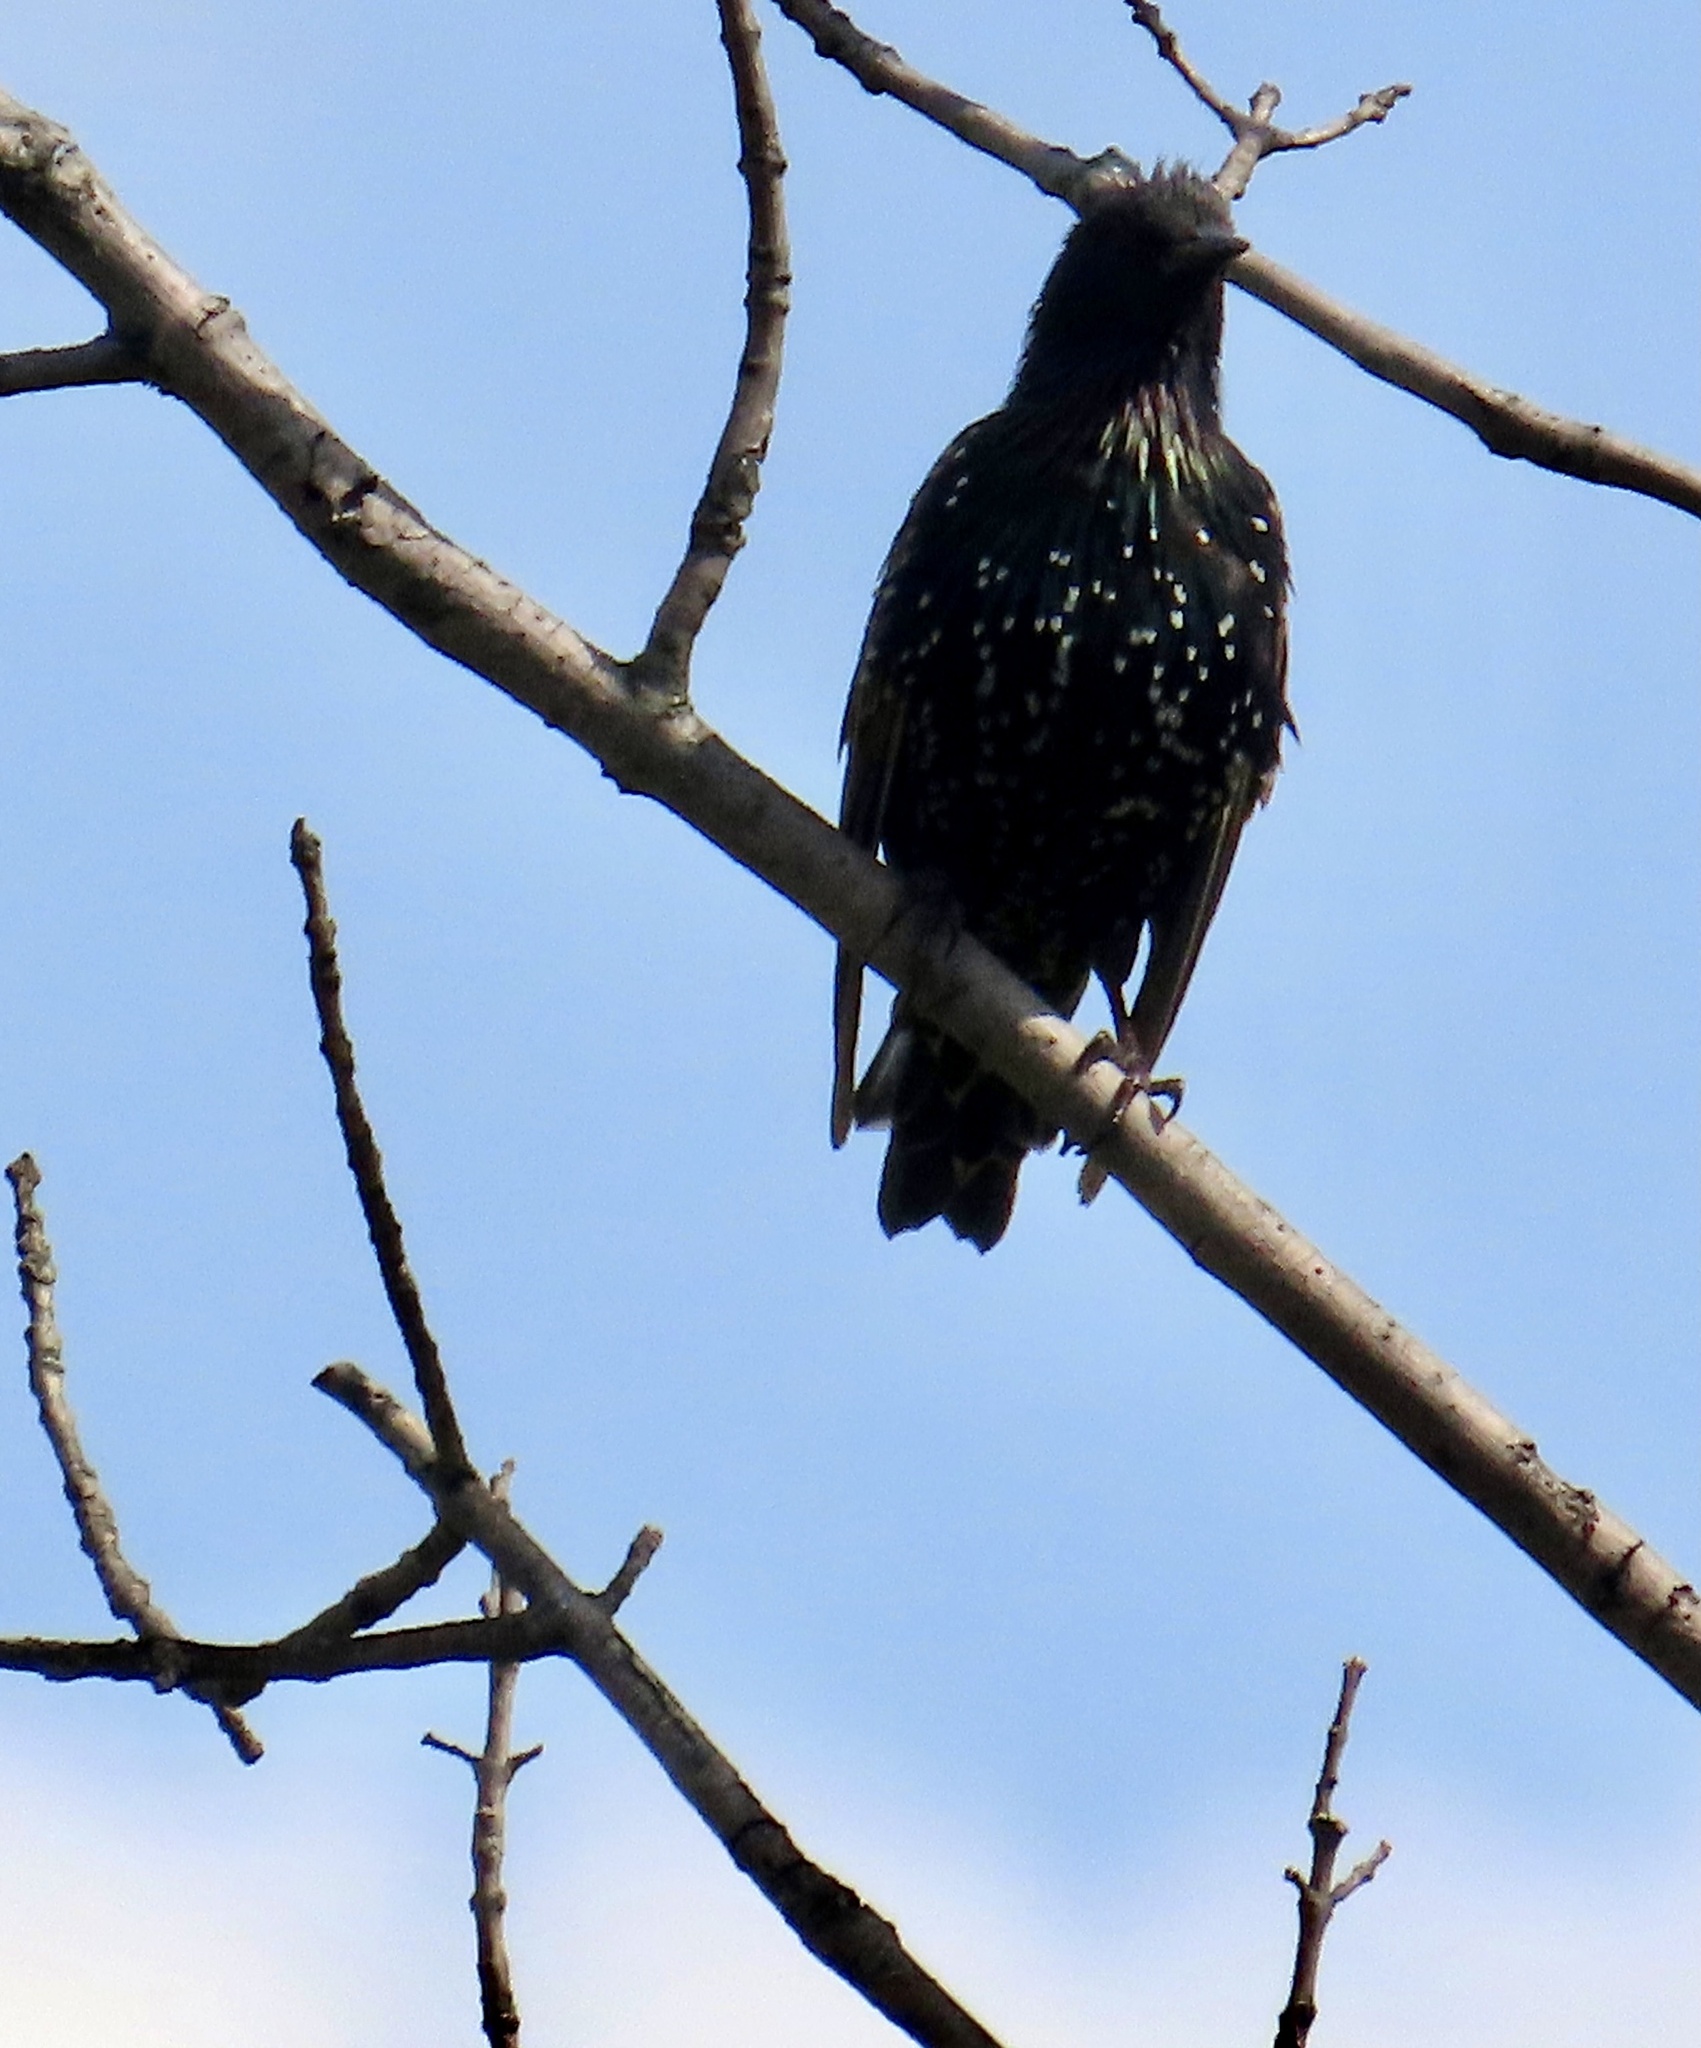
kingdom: Animalia
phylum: Chordata
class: Aves
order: Passeriformes
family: Sturnidae
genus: Sturnus
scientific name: Sturnus vulgaris
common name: Common starling
